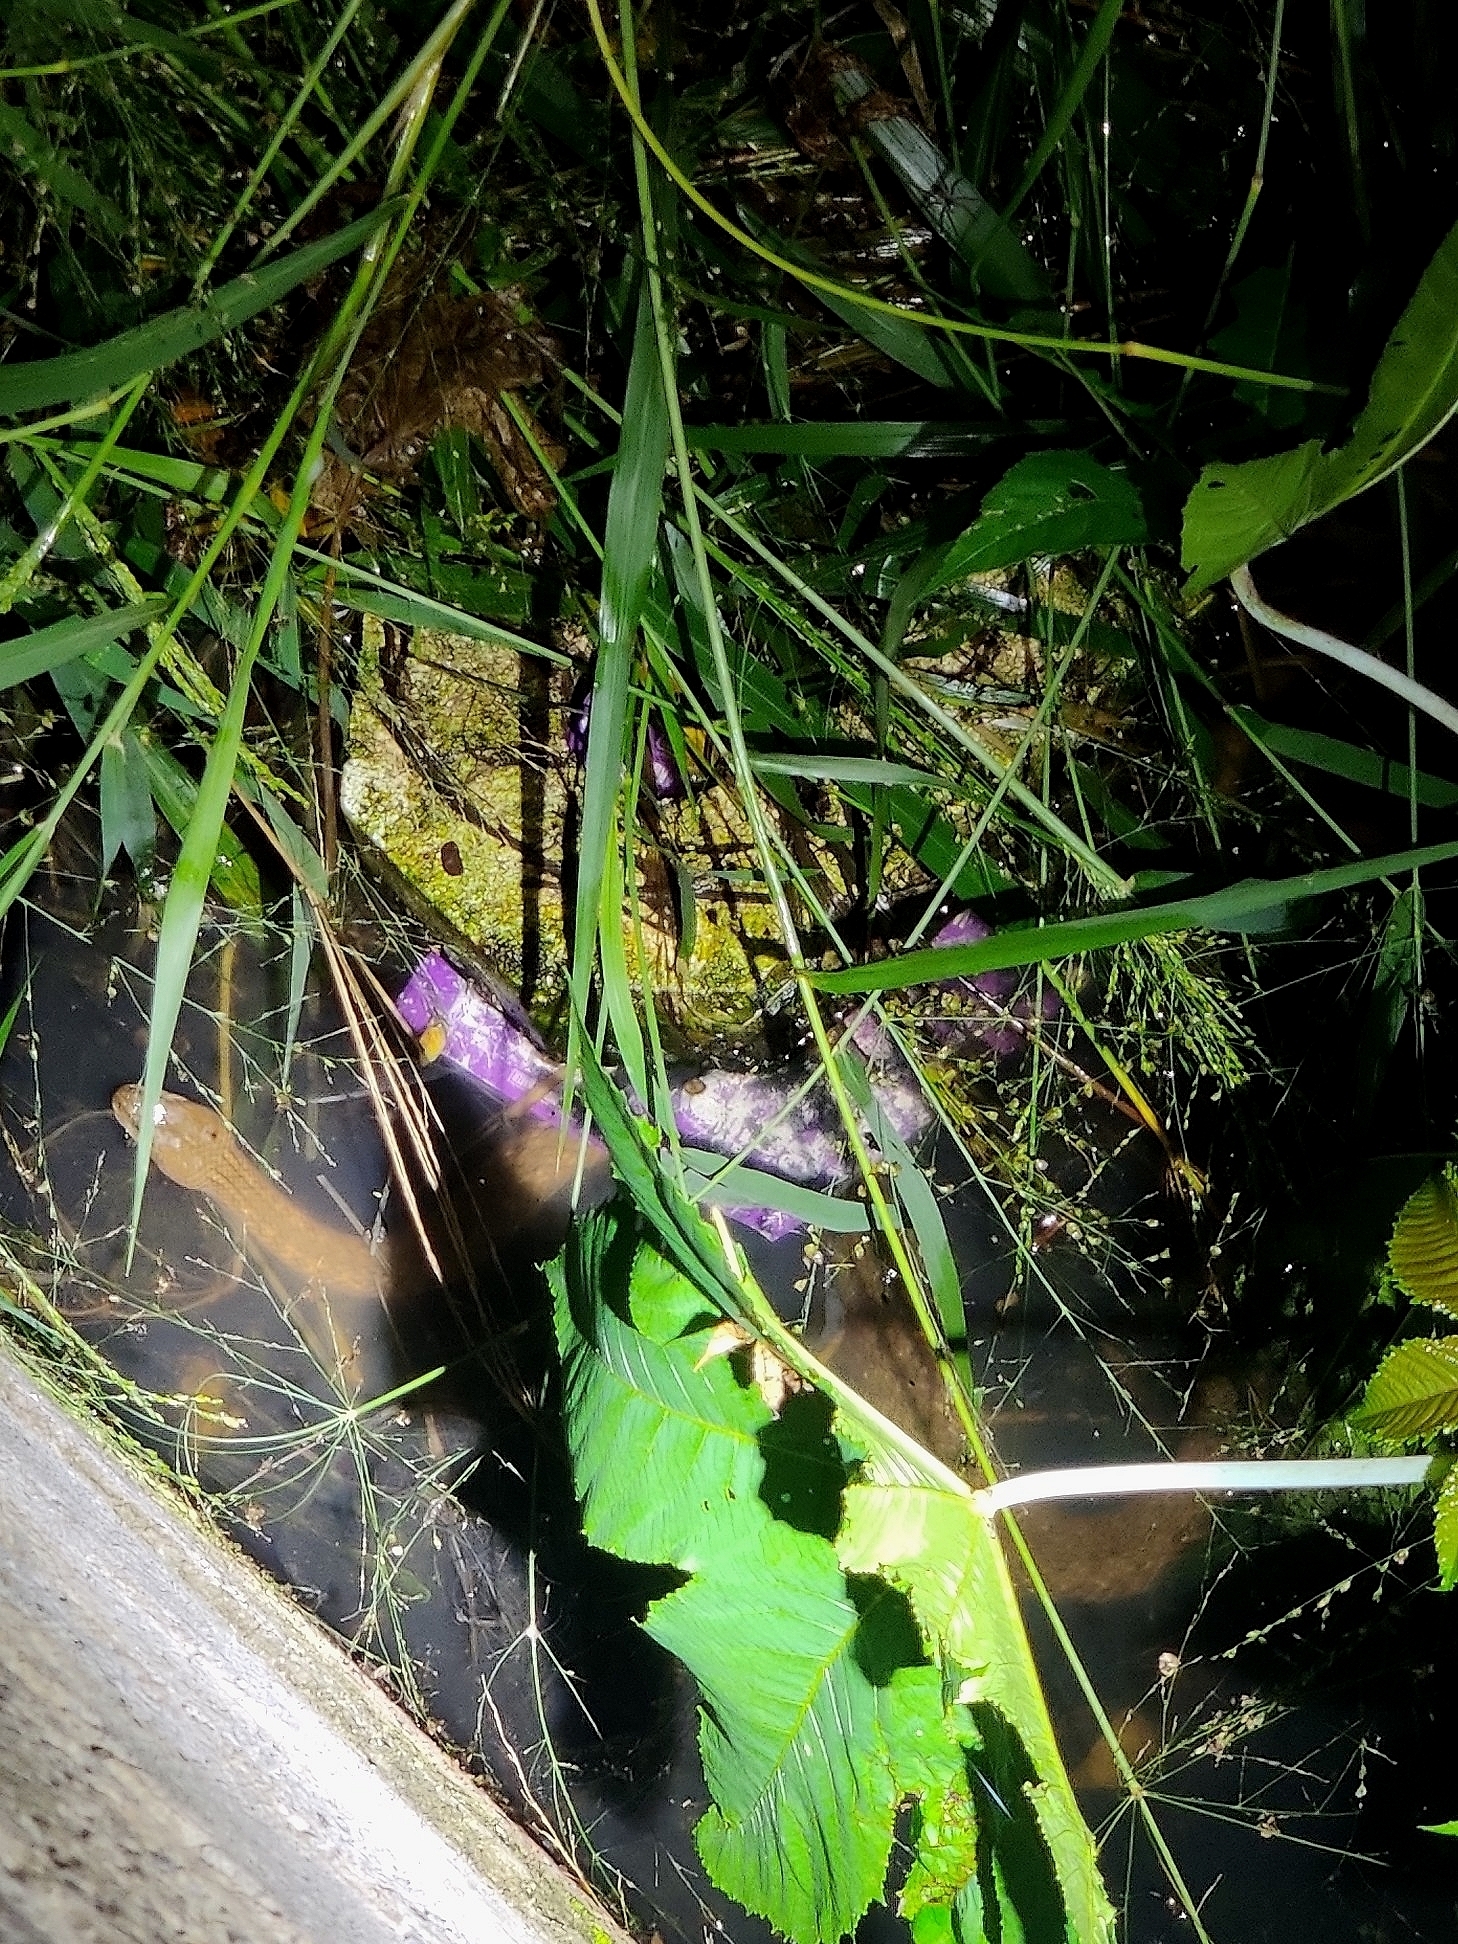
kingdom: Animalia
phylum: Chordata
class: Squamata
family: Colubridae
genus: Fowlea
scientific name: Fowlea piscator
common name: Asiatic water snake
